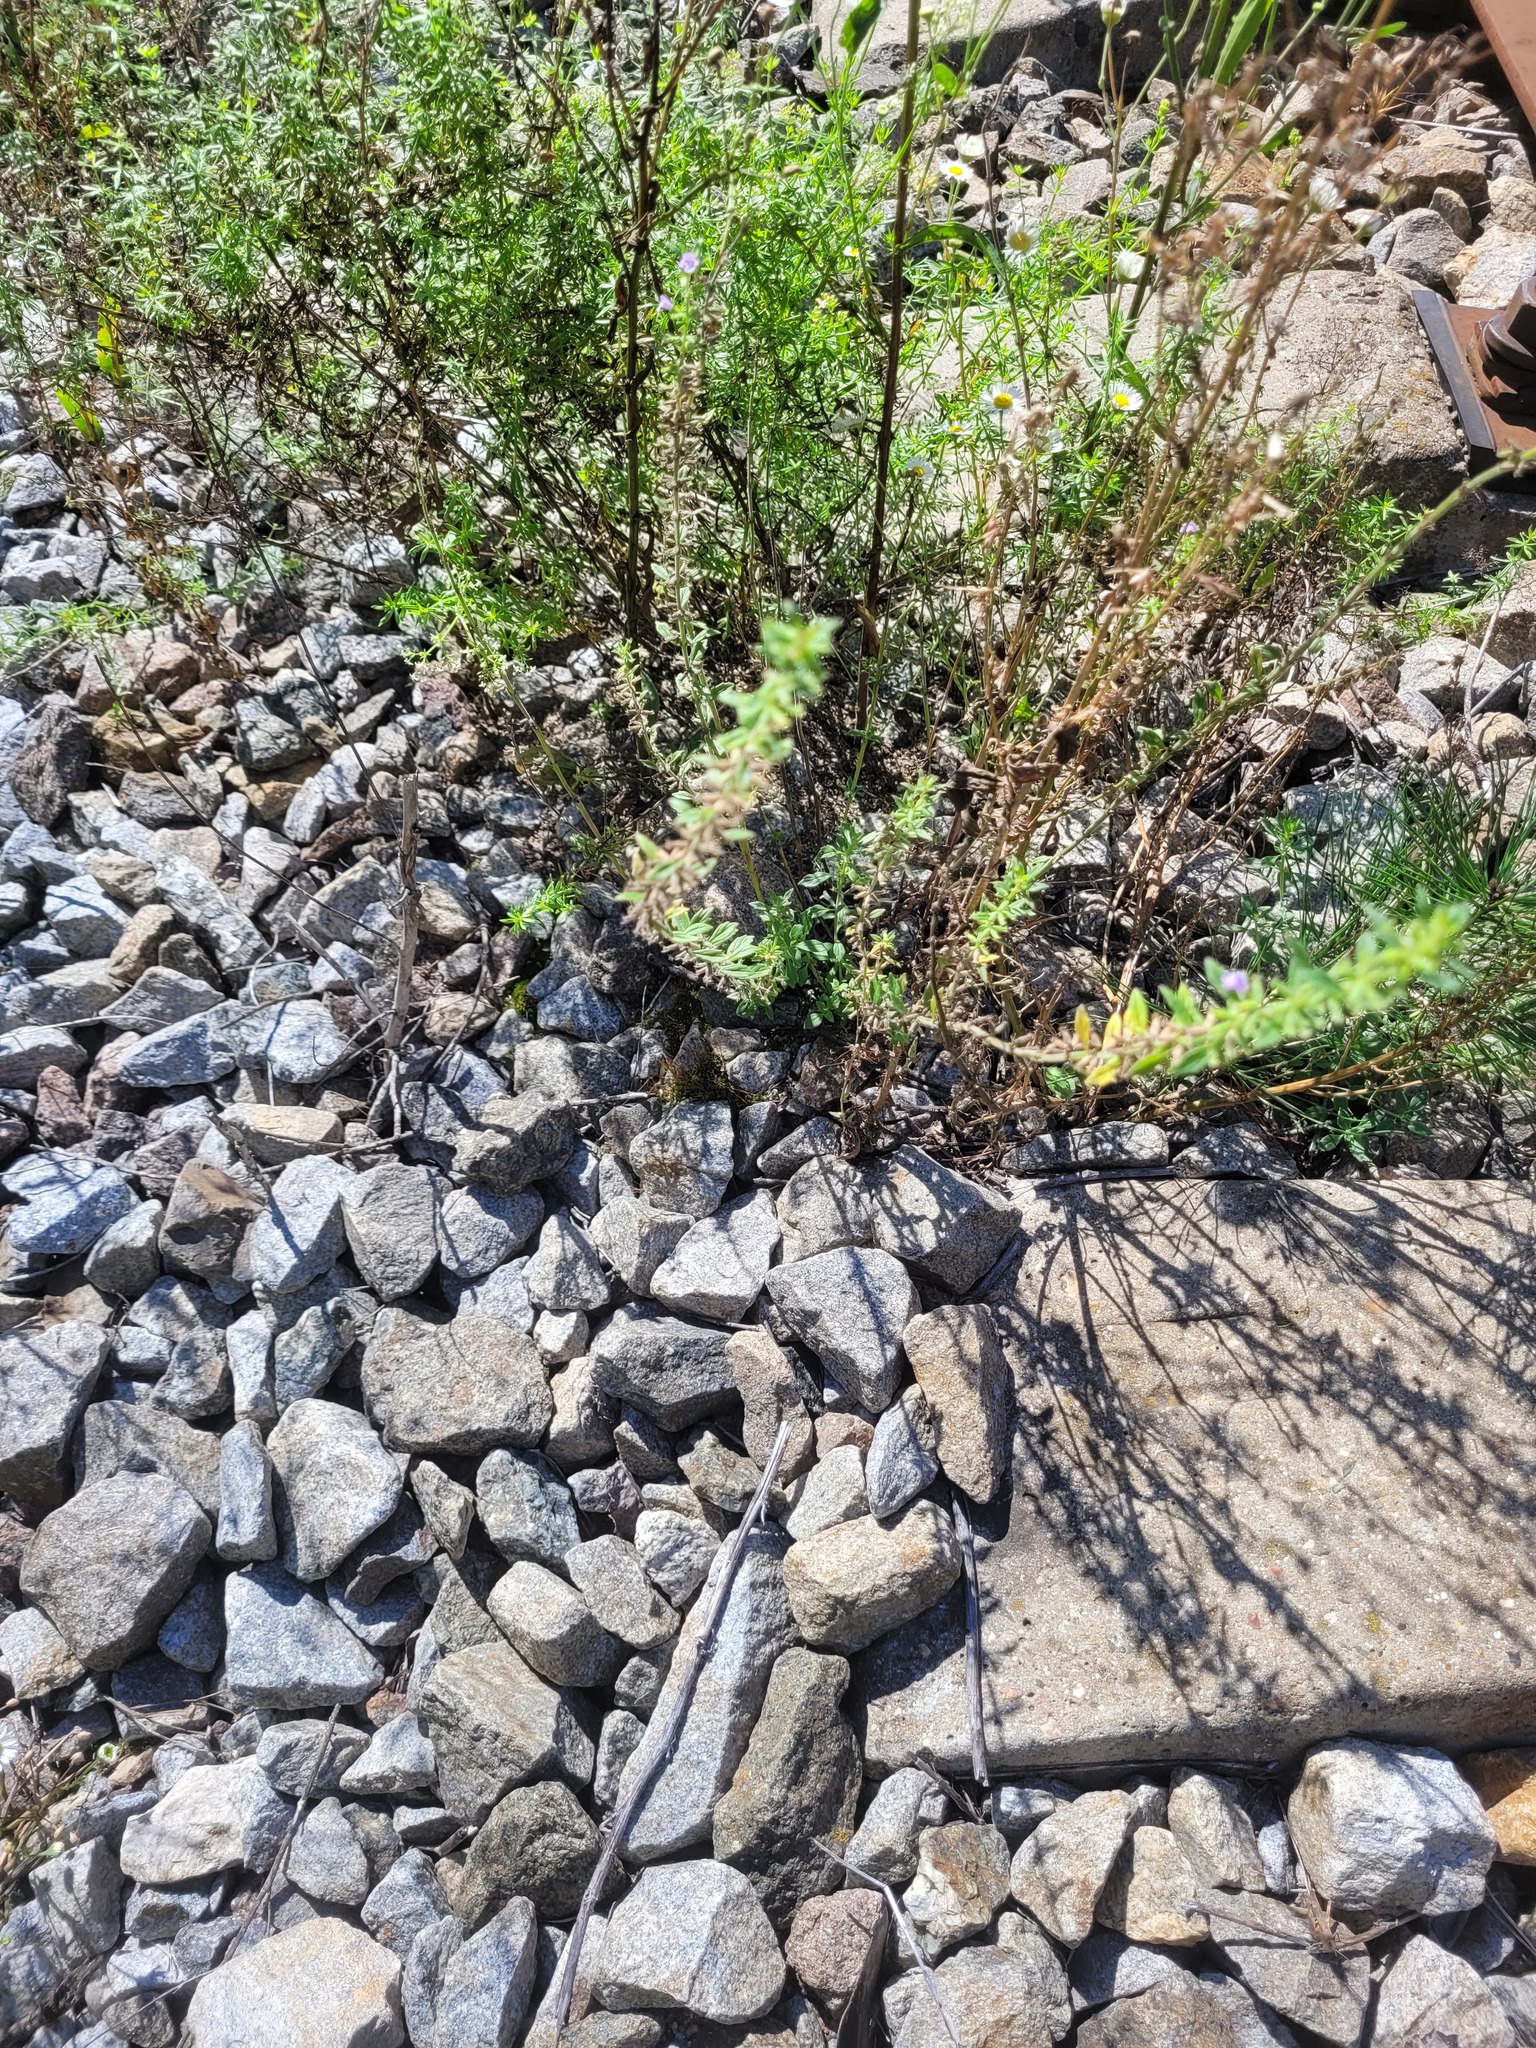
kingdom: Plantae
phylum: Tracheophyta
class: Magnoliopsida
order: Lamiales
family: Lamiaceae
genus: Clinopodium
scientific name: Clinopodium acinos
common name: Basil thyme
